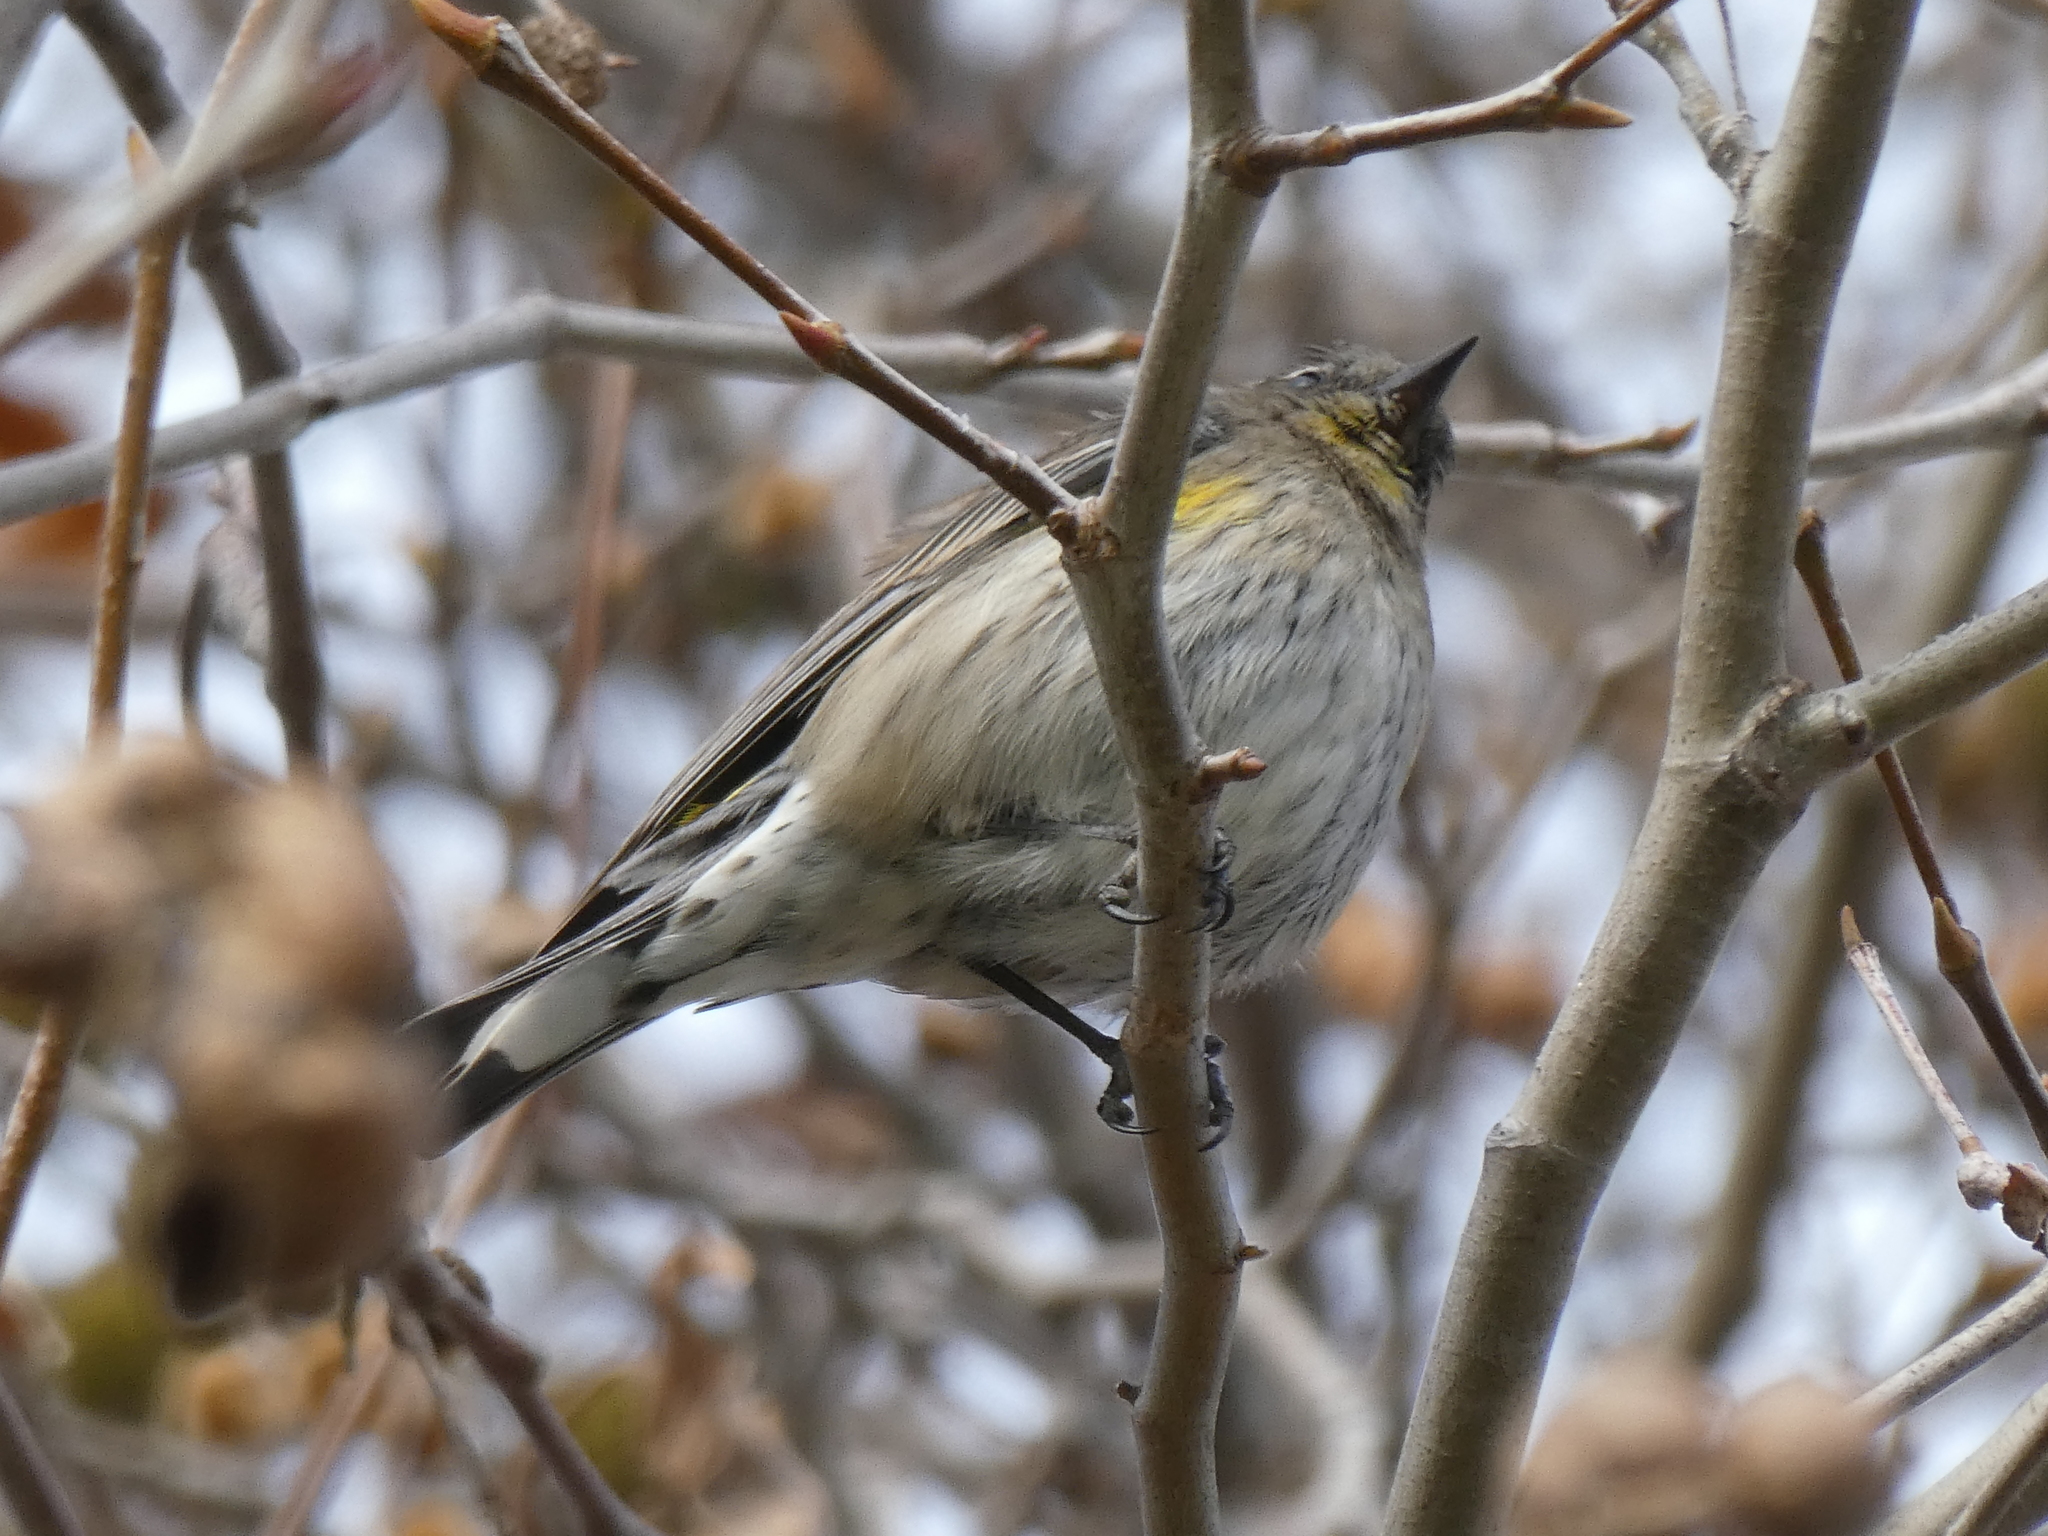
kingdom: Animalia
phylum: Chordata
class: Aves
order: Passeriformes
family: Parulidae
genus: Setophaga
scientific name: Setophaga coronata
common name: Myrtle warbler
